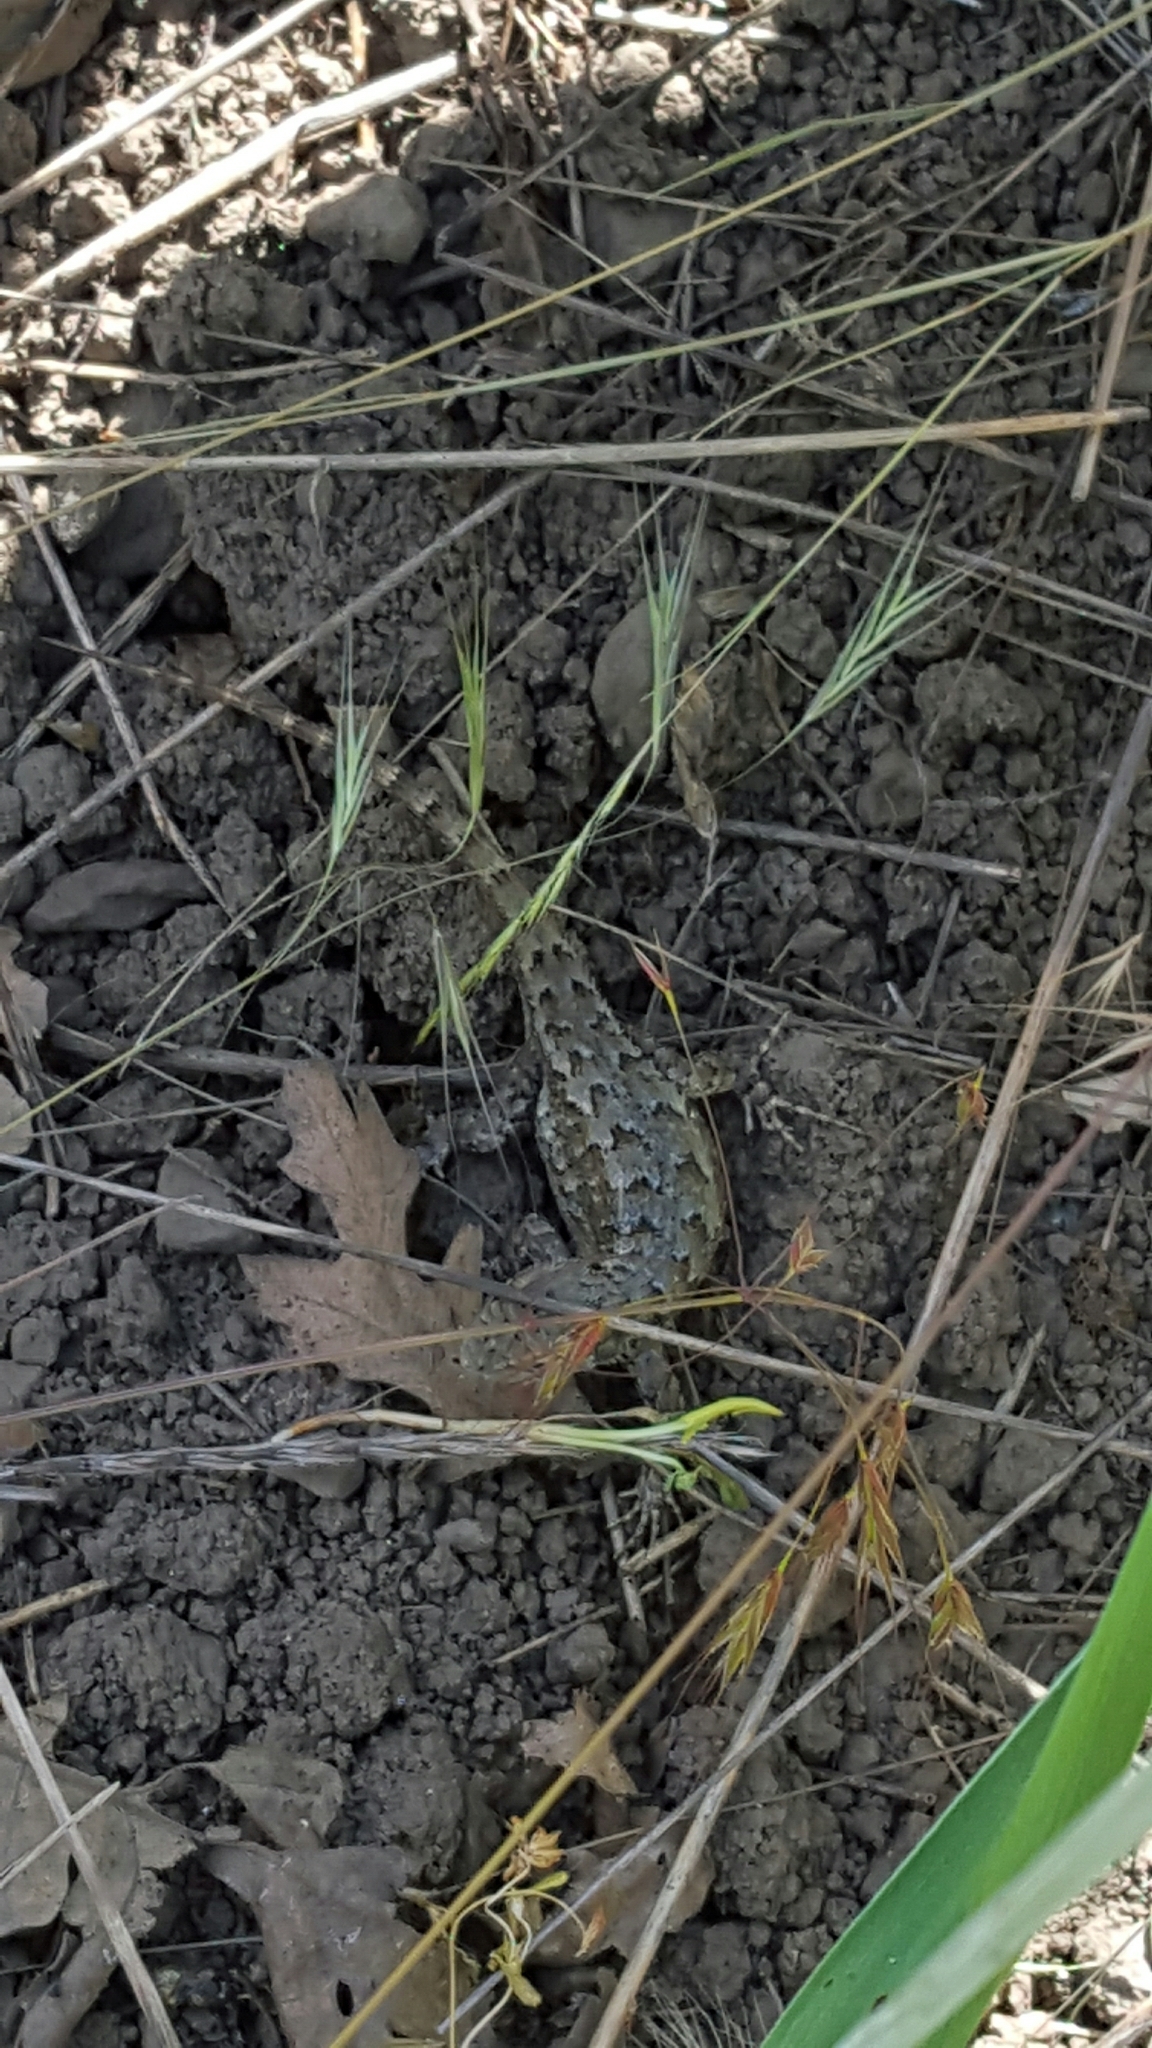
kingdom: Animalia
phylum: Chordata
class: Squamata
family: Phrynosomatidae
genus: Sceloporus
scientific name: Sceloporus occidentalis
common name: Western fence lizard
